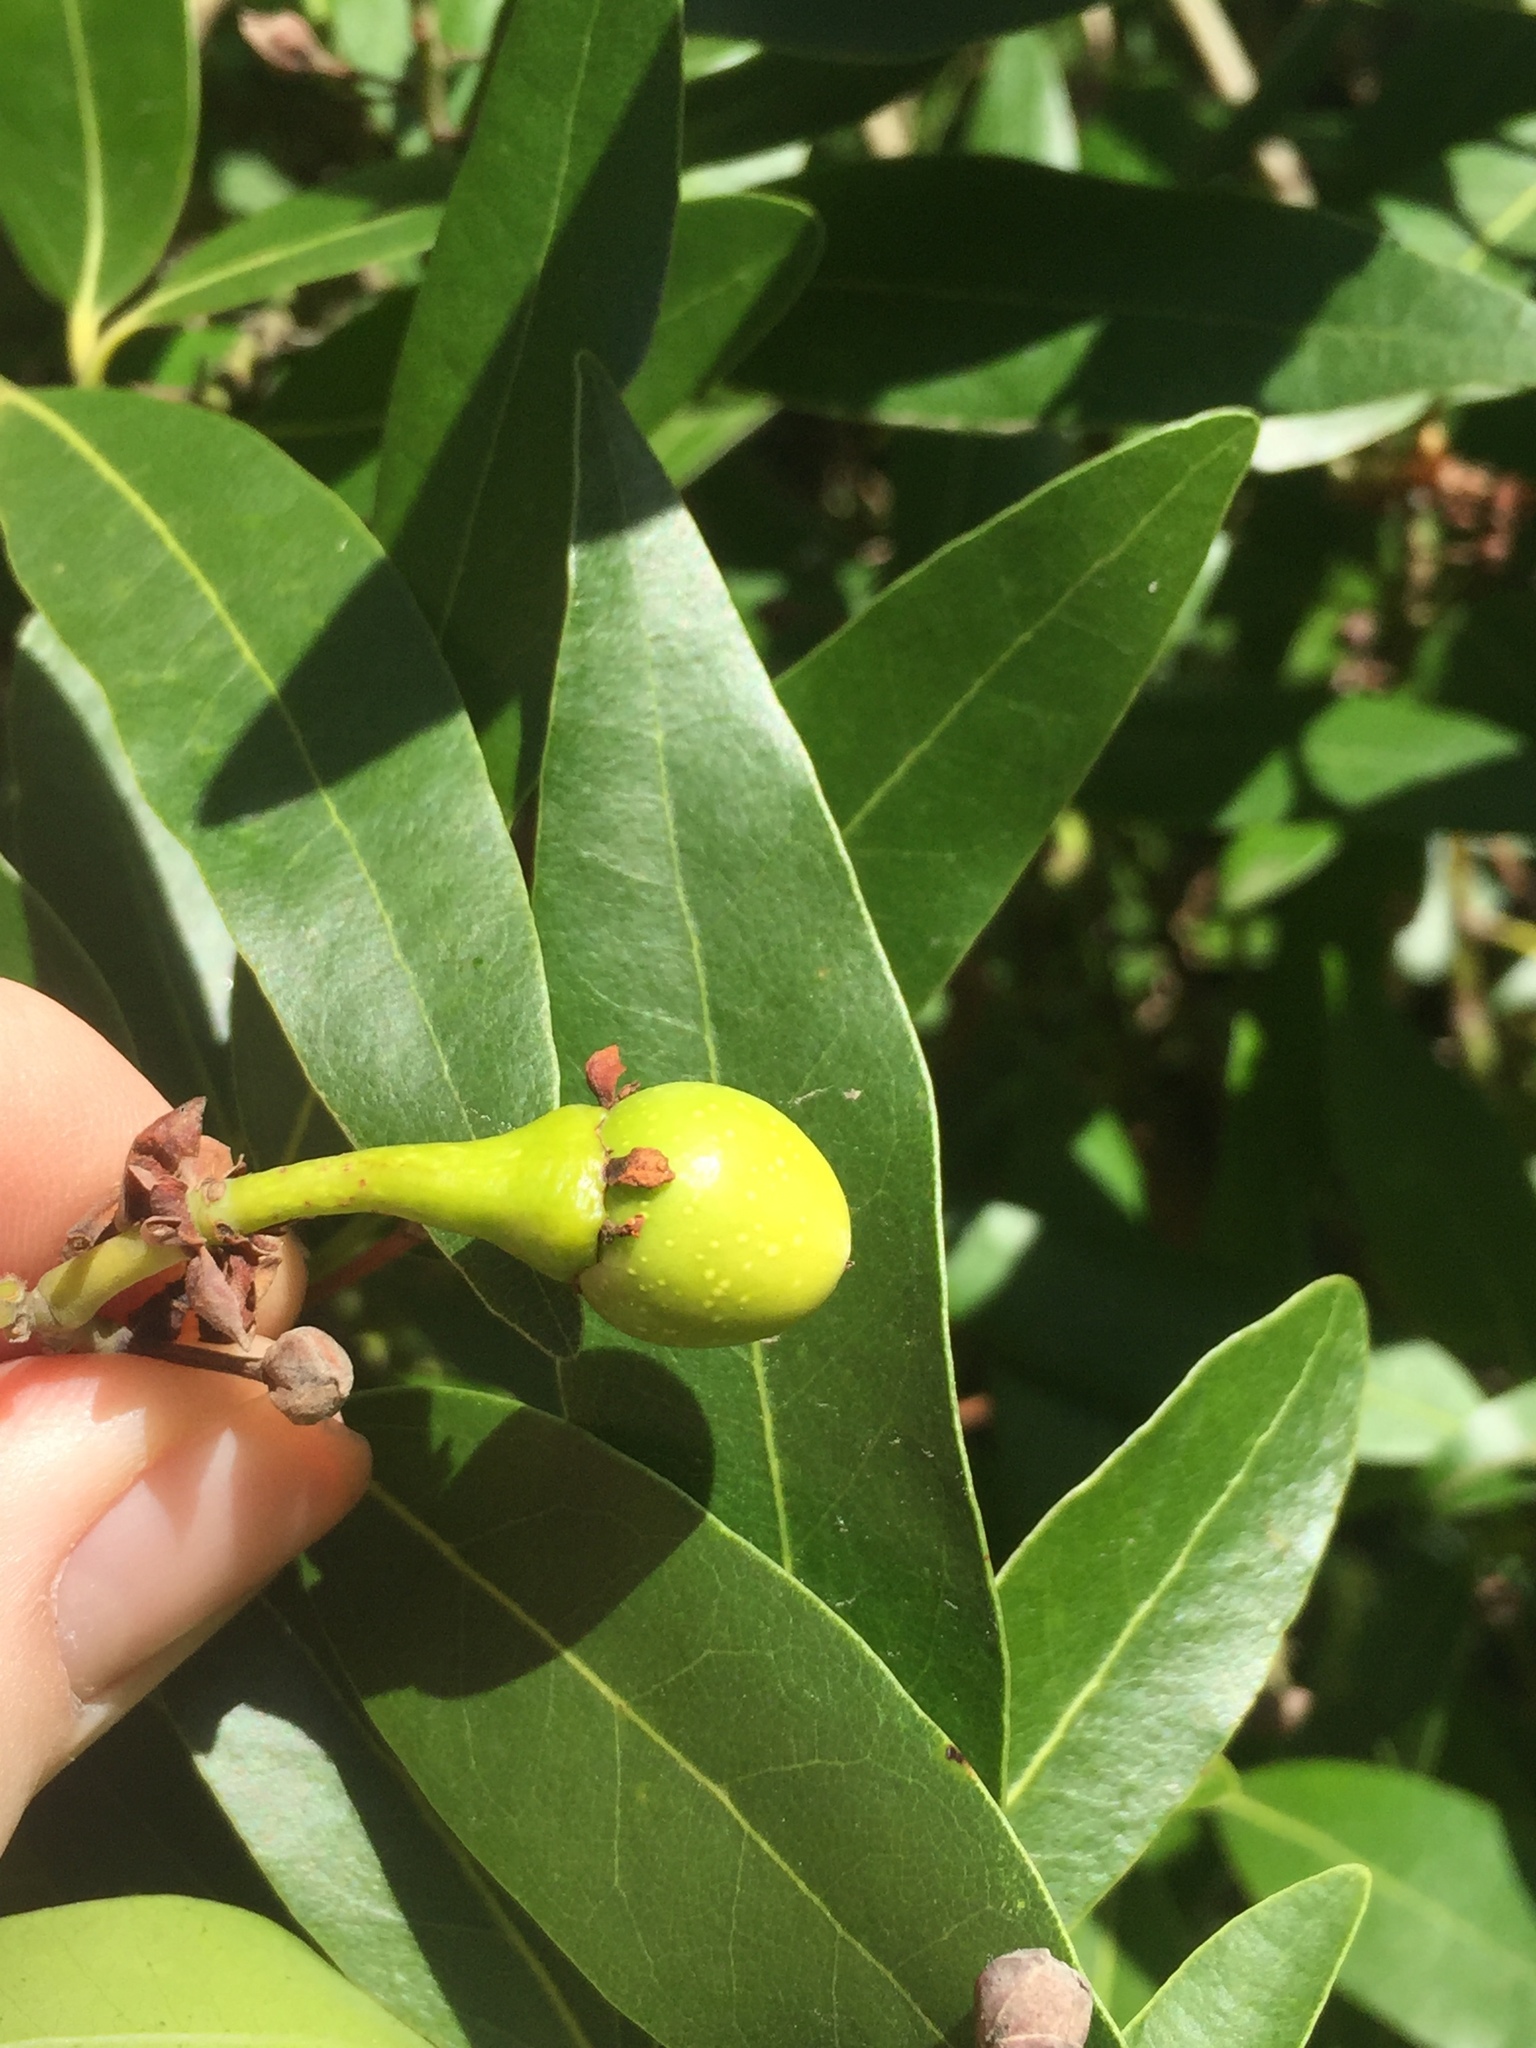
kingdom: Plantae
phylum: Tracheophyta
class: Magnoliopsida
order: Laurales
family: Lauraceae
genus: Umbellularia
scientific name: Umbellularia californica
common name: California bay
